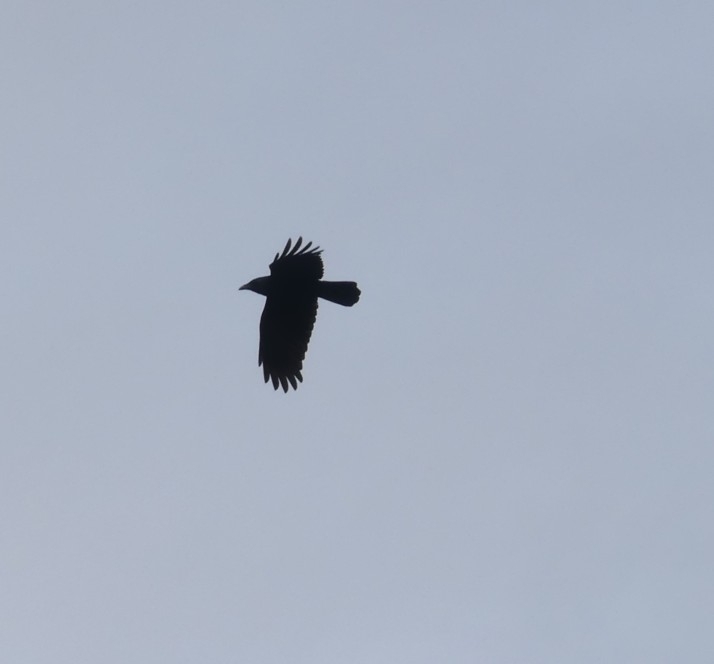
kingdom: Animalia
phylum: Chordata
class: Aves
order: Passeriformes
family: Corvidae
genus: Corvus
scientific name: Corvus corax
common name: Common raven
